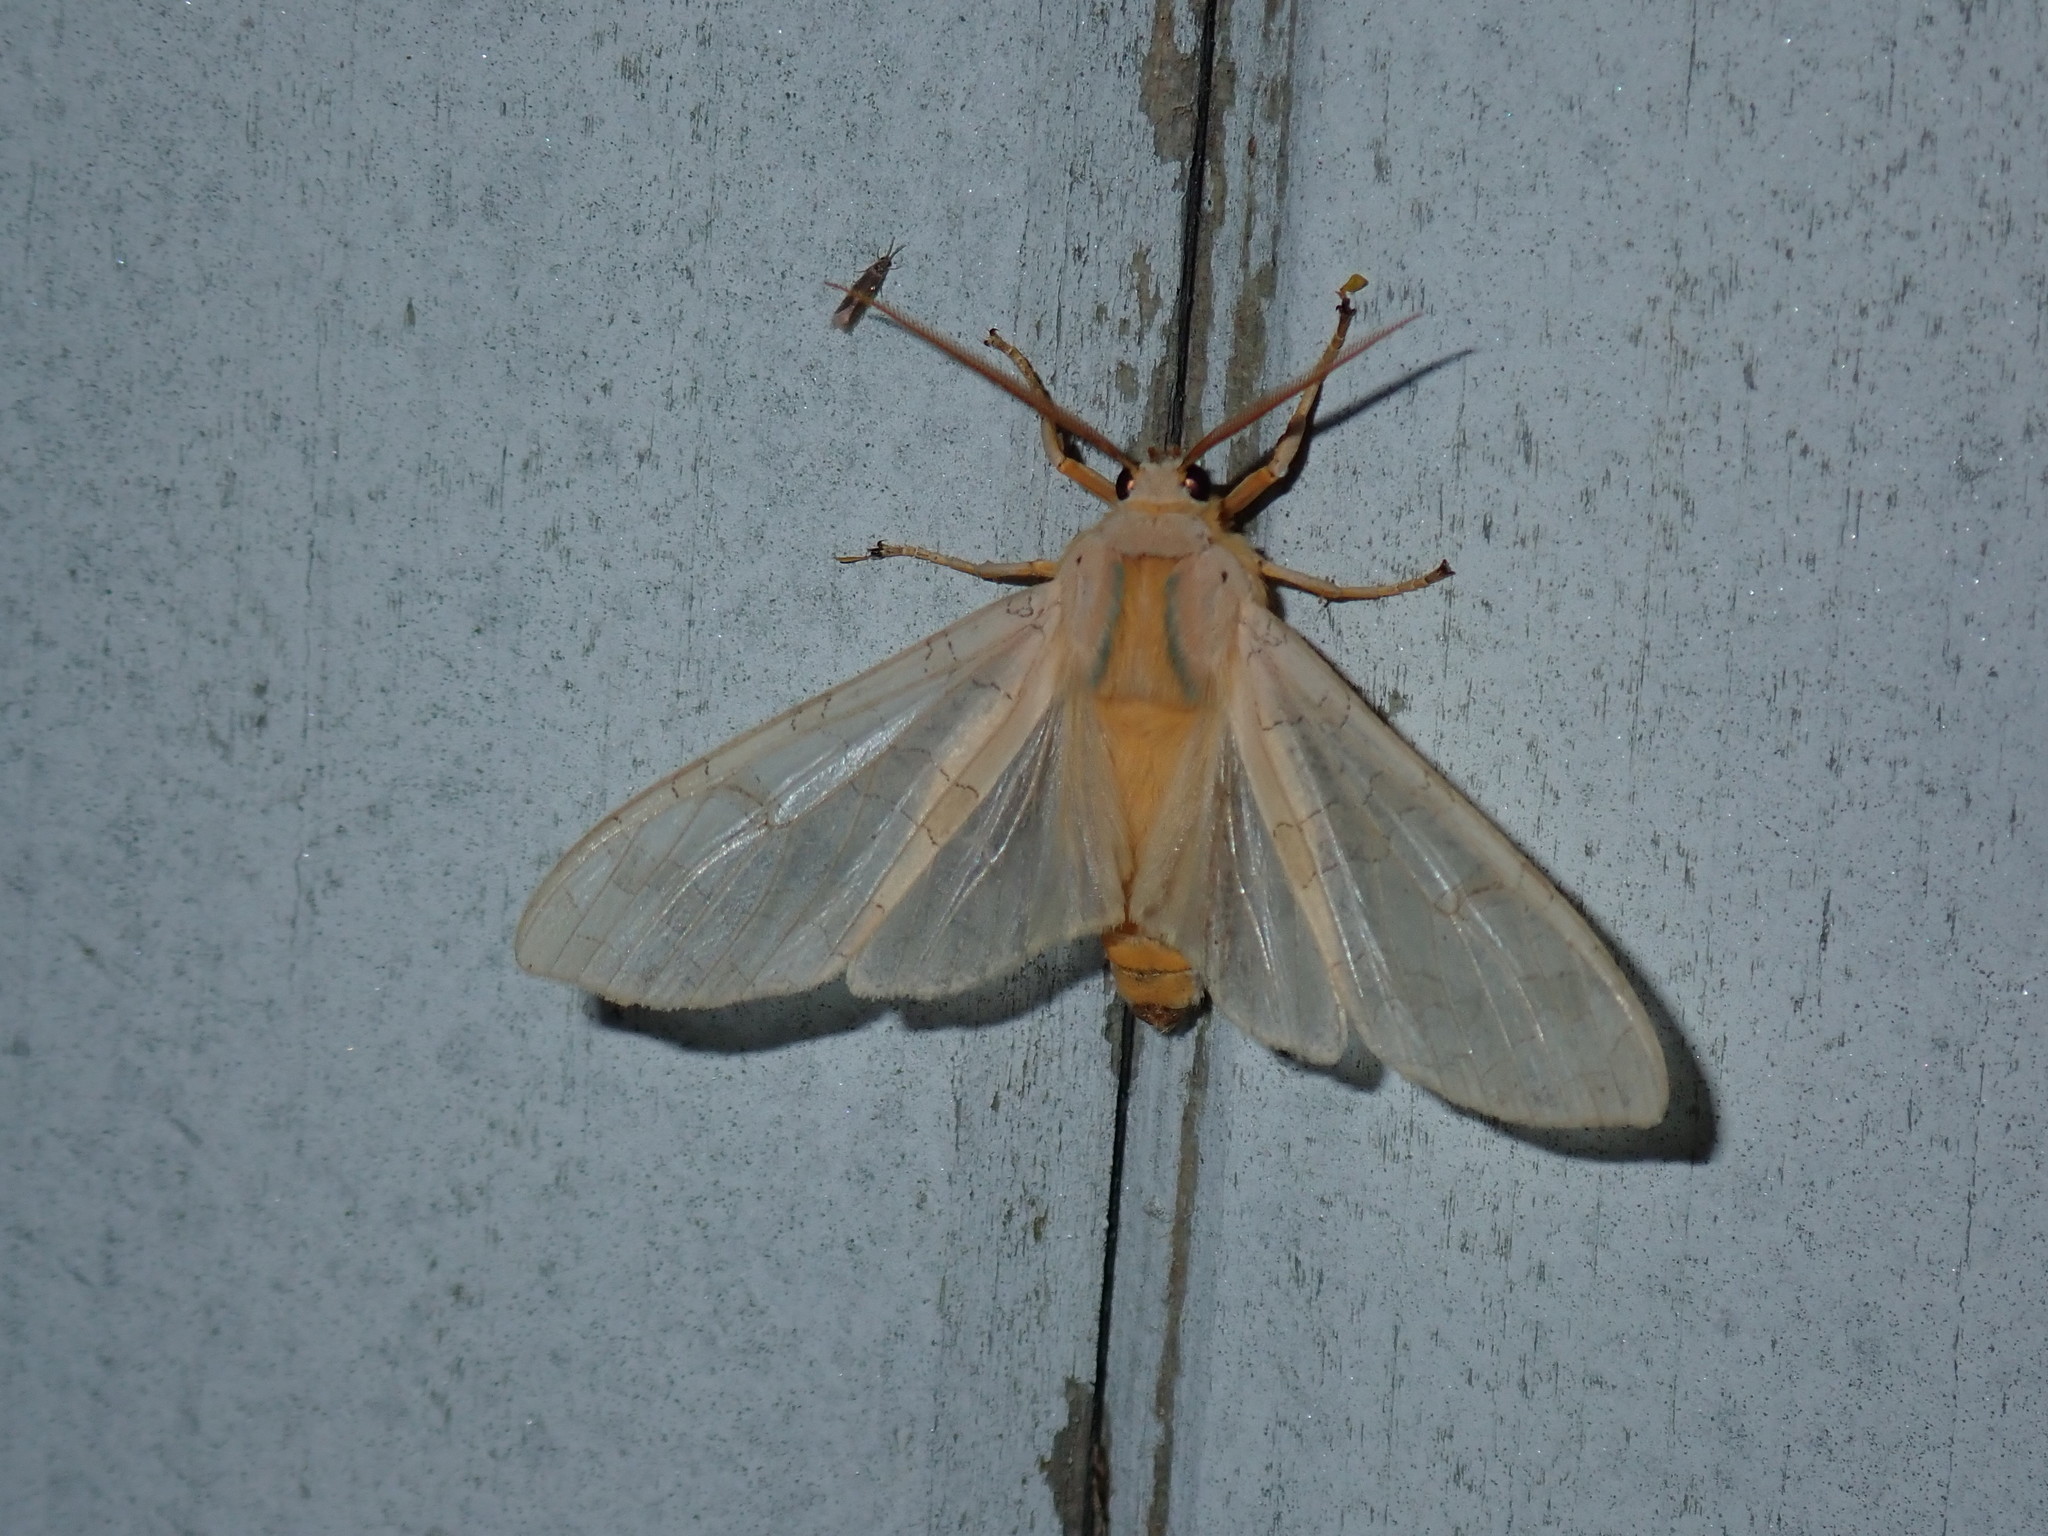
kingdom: Animalia
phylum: Arthropoda
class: Insecta
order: Lepidoptera
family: Erebidae
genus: Halysidota
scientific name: Halysidota tessellaris
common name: Banded tussock moth
